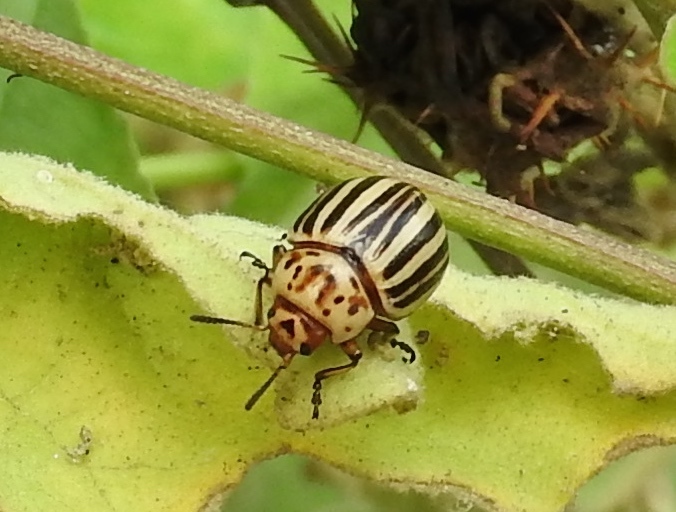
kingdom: Animalia
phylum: Arthropoda
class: Insecta
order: Coleoptera
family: Chrysomelidae
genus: Leptinotarsa
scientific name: Leptinotarsa decemlineata
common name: Colorado potato beetle
